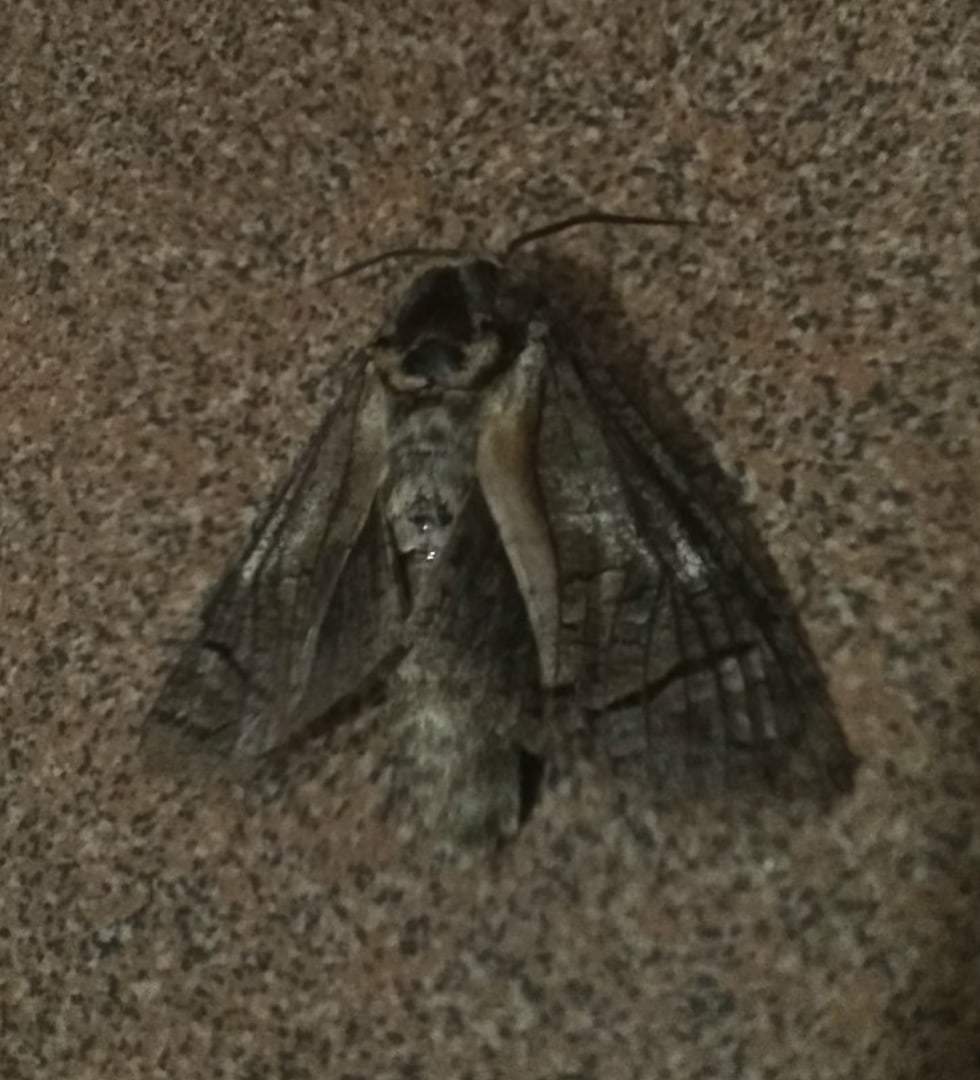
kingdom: Animalia
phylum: Arthropoda
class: Insecta
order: Lepidoptera
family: Cossidae
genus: Cossus
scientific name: Cossus cossus
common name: Goat moth
